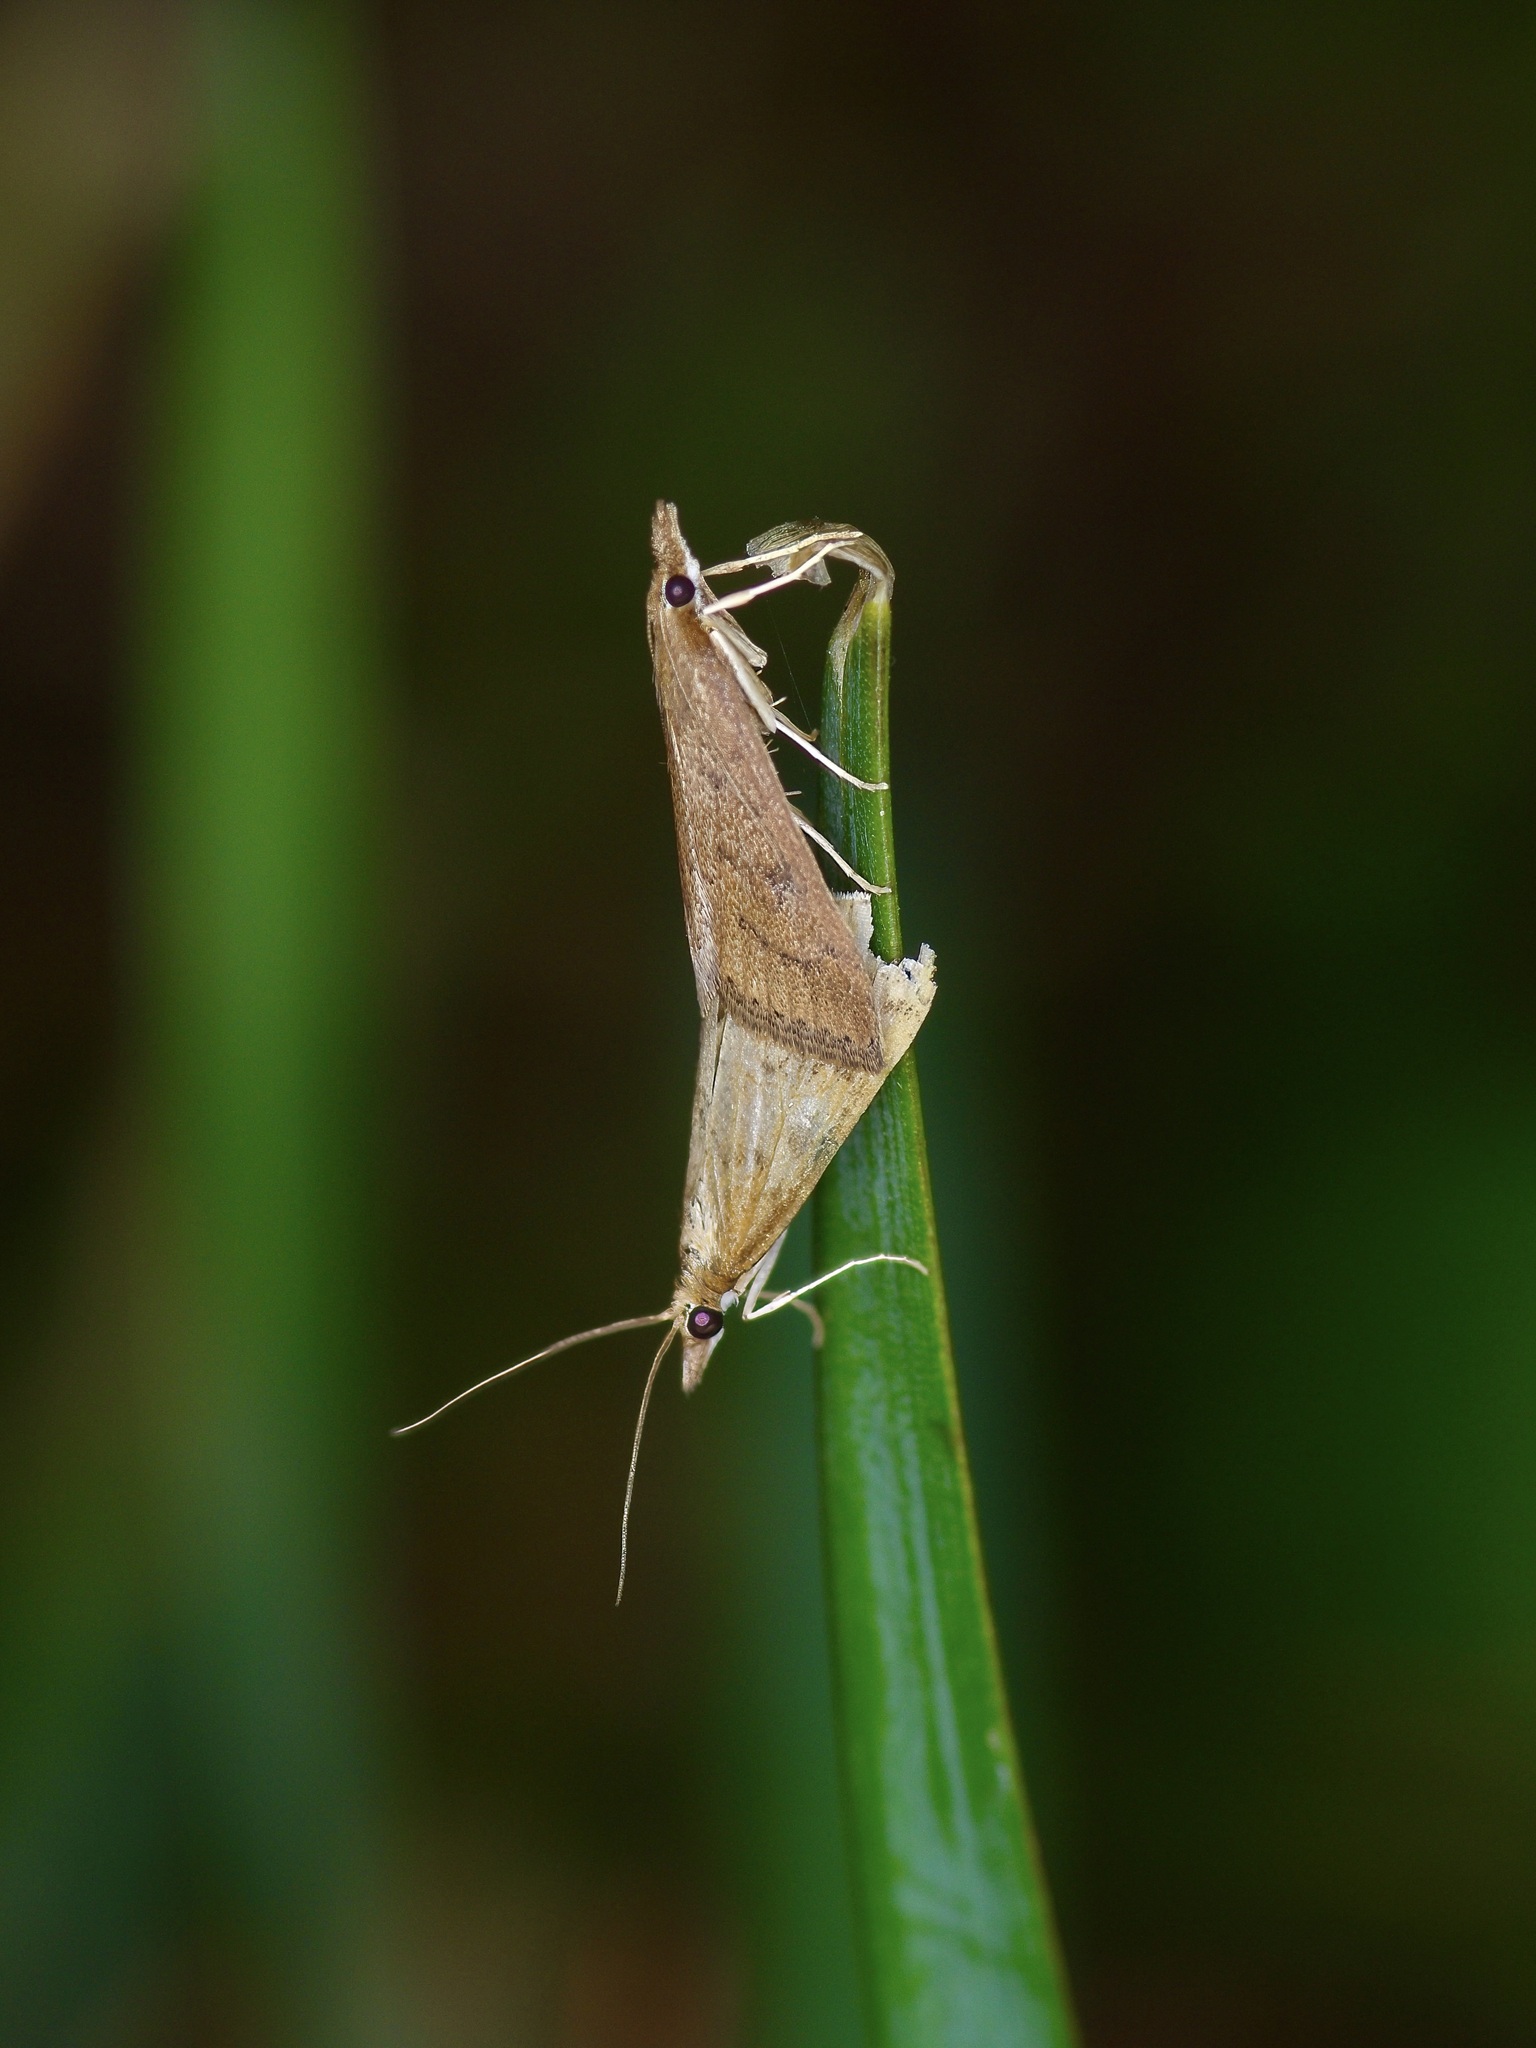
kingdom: Animalia
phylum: Arthropoda
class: Insecta
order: Lepidoptera
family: Crambidae
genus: Udea
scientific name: Udea rubigalis
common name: Celery leaftier moth
